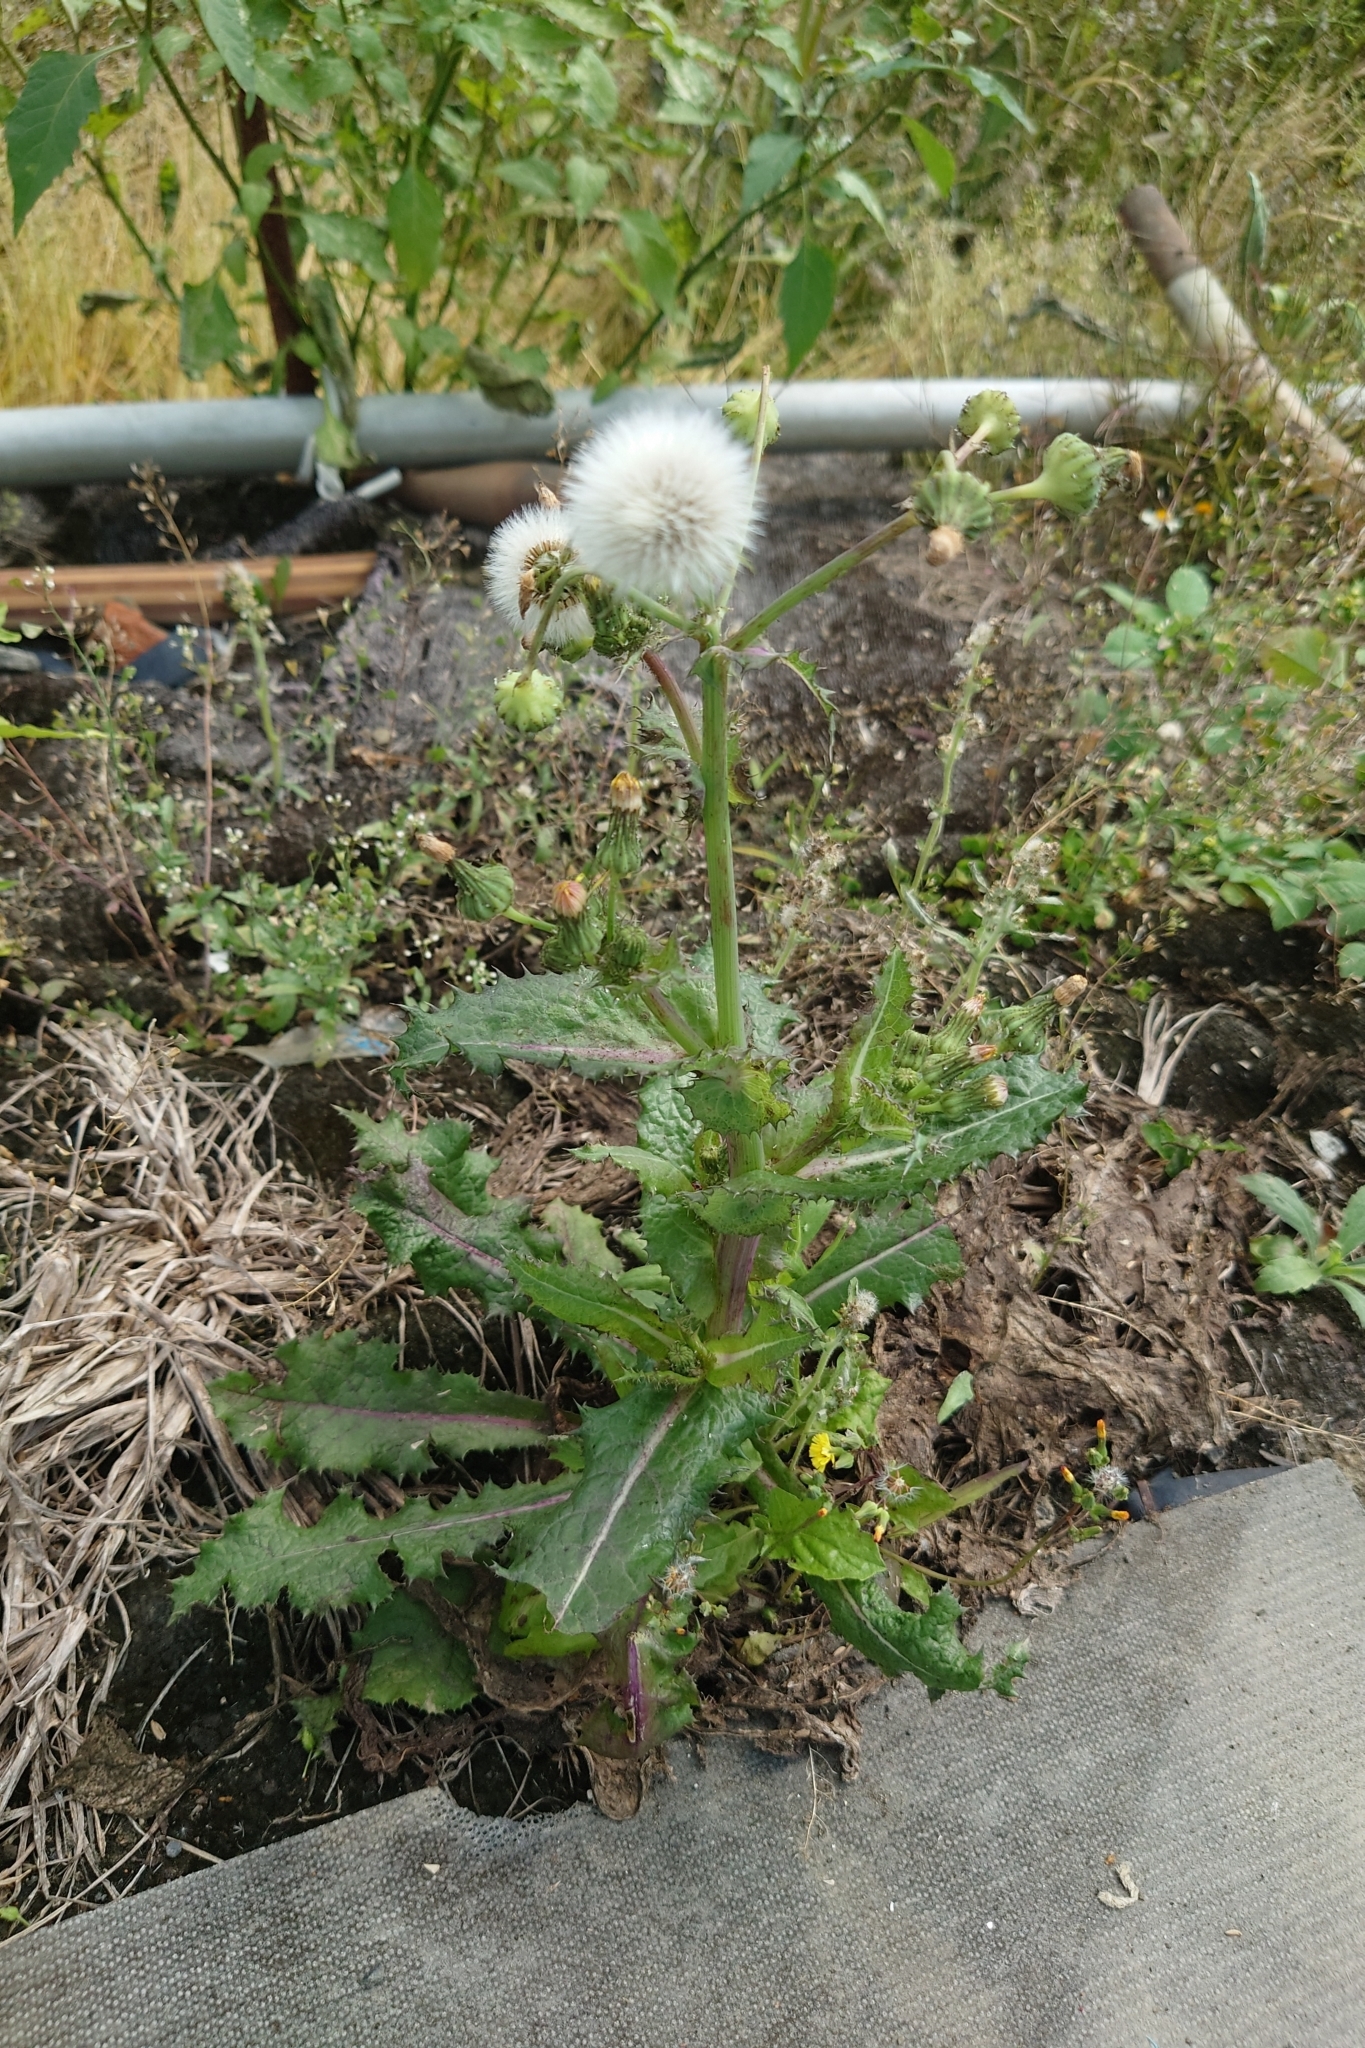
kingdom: Plantae
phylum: Tracheophyta
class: Magnoliopsida
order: Asterales
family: Asteraceae
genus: Sonchus
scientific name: Sonchus asper
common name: Prickly sow-thistle
